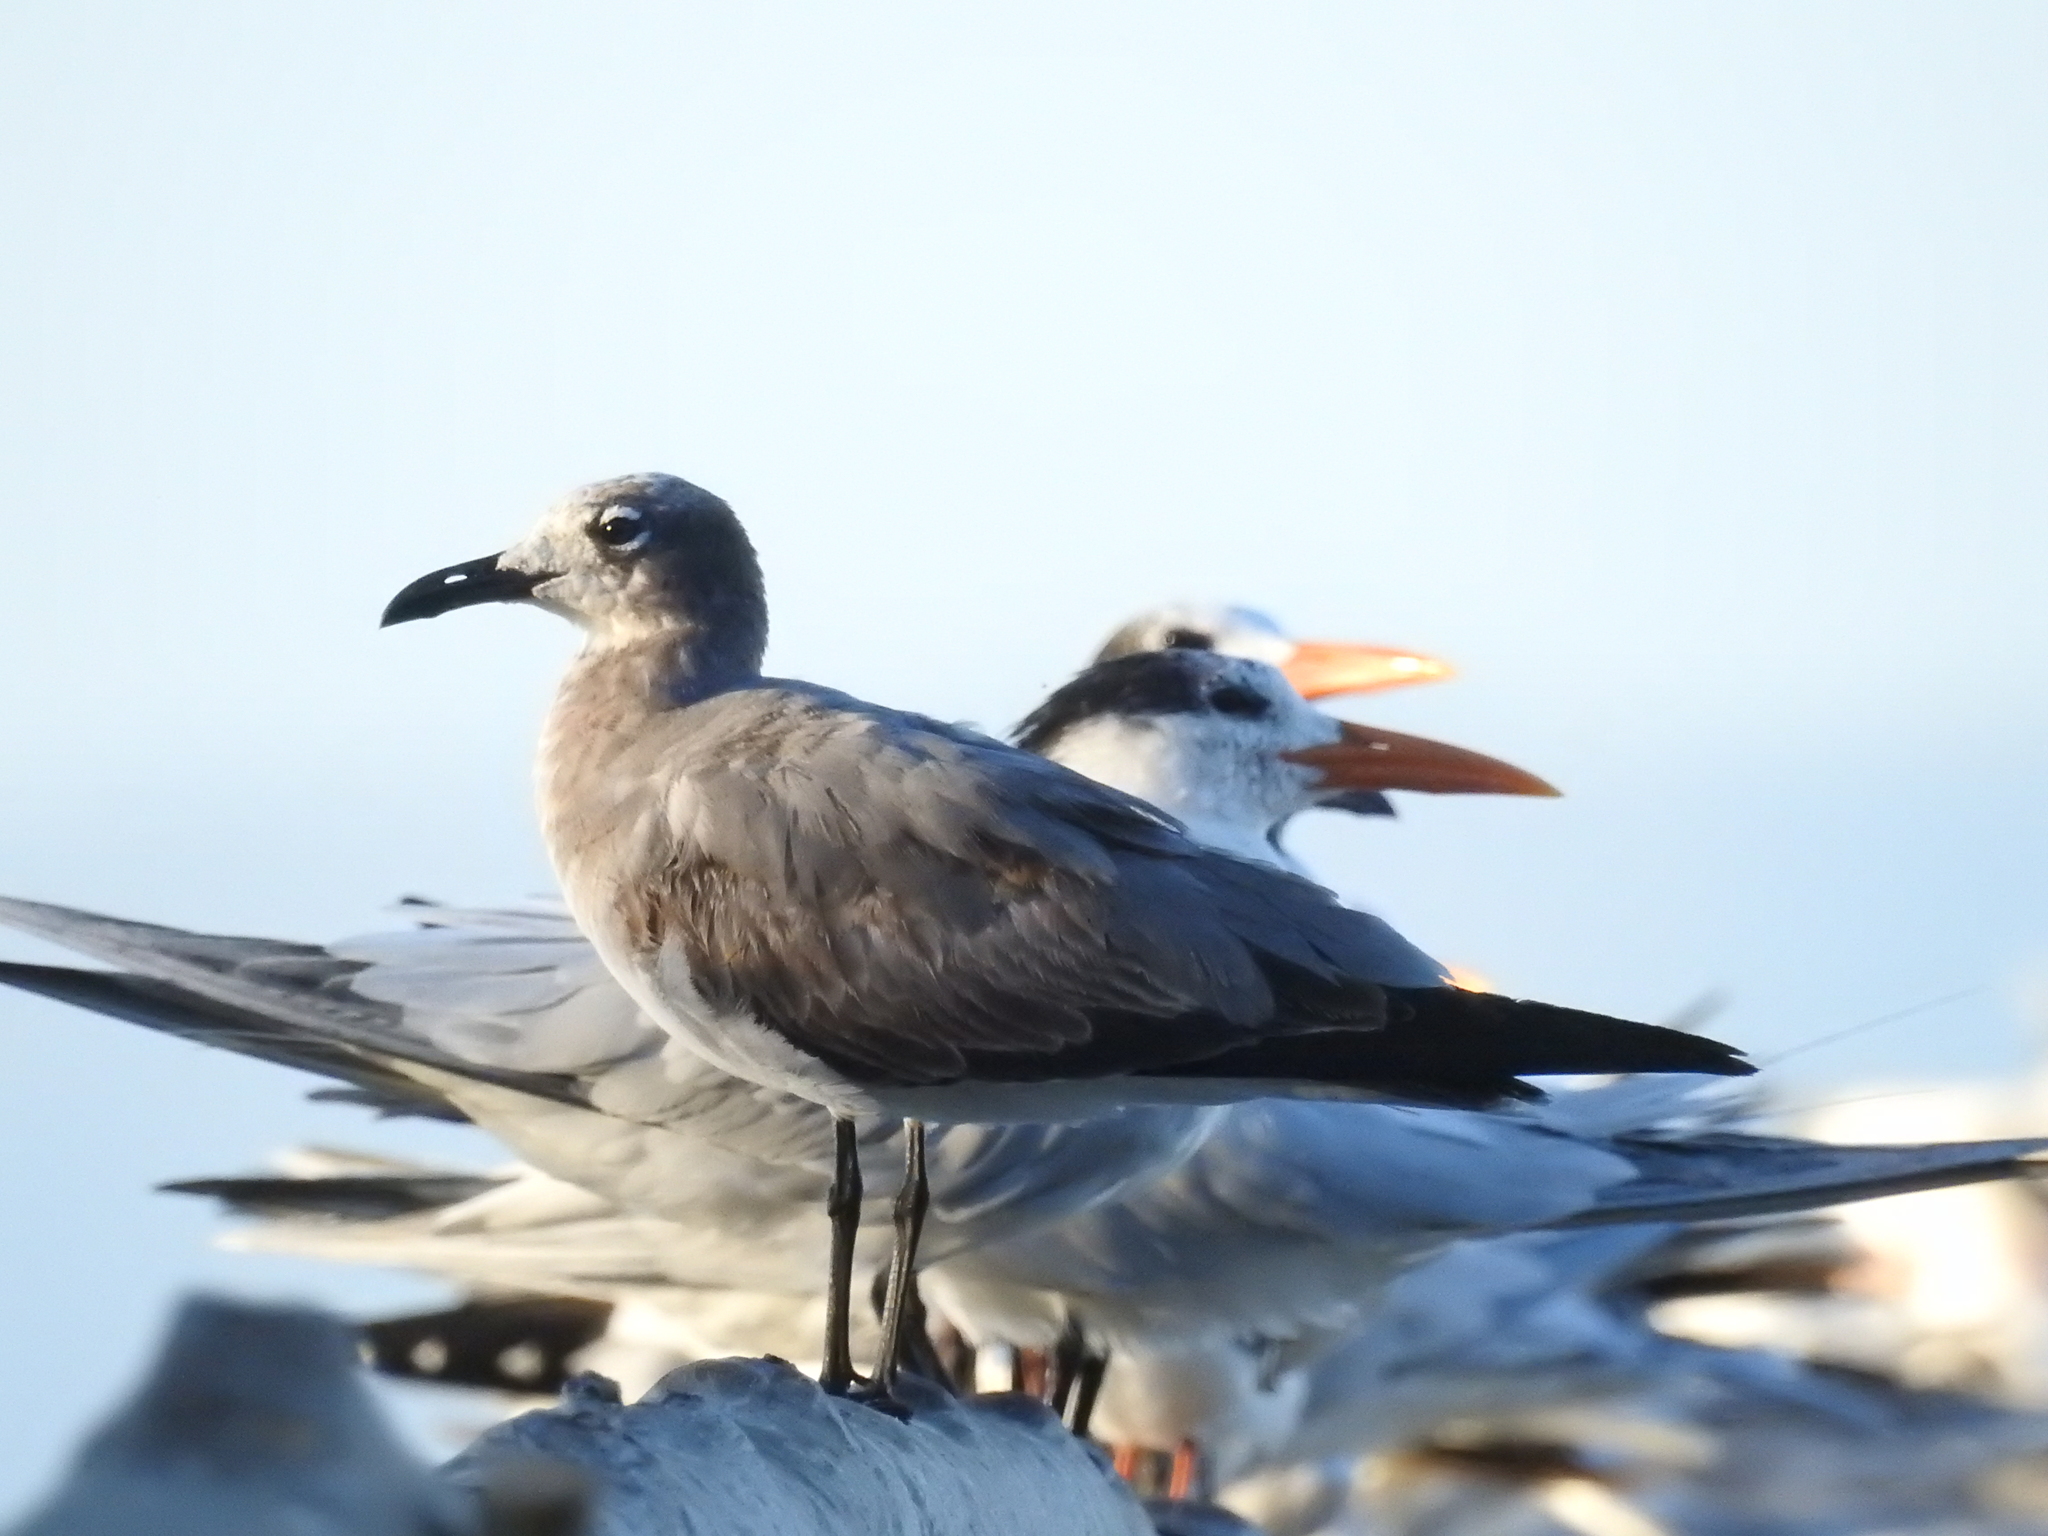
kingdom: Animalia
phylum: Chordata
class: Aves
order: Charadriiformes
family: Laridae
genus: Leucophaeus
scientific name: Leucophaeus atricilla
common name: Laughing gull
